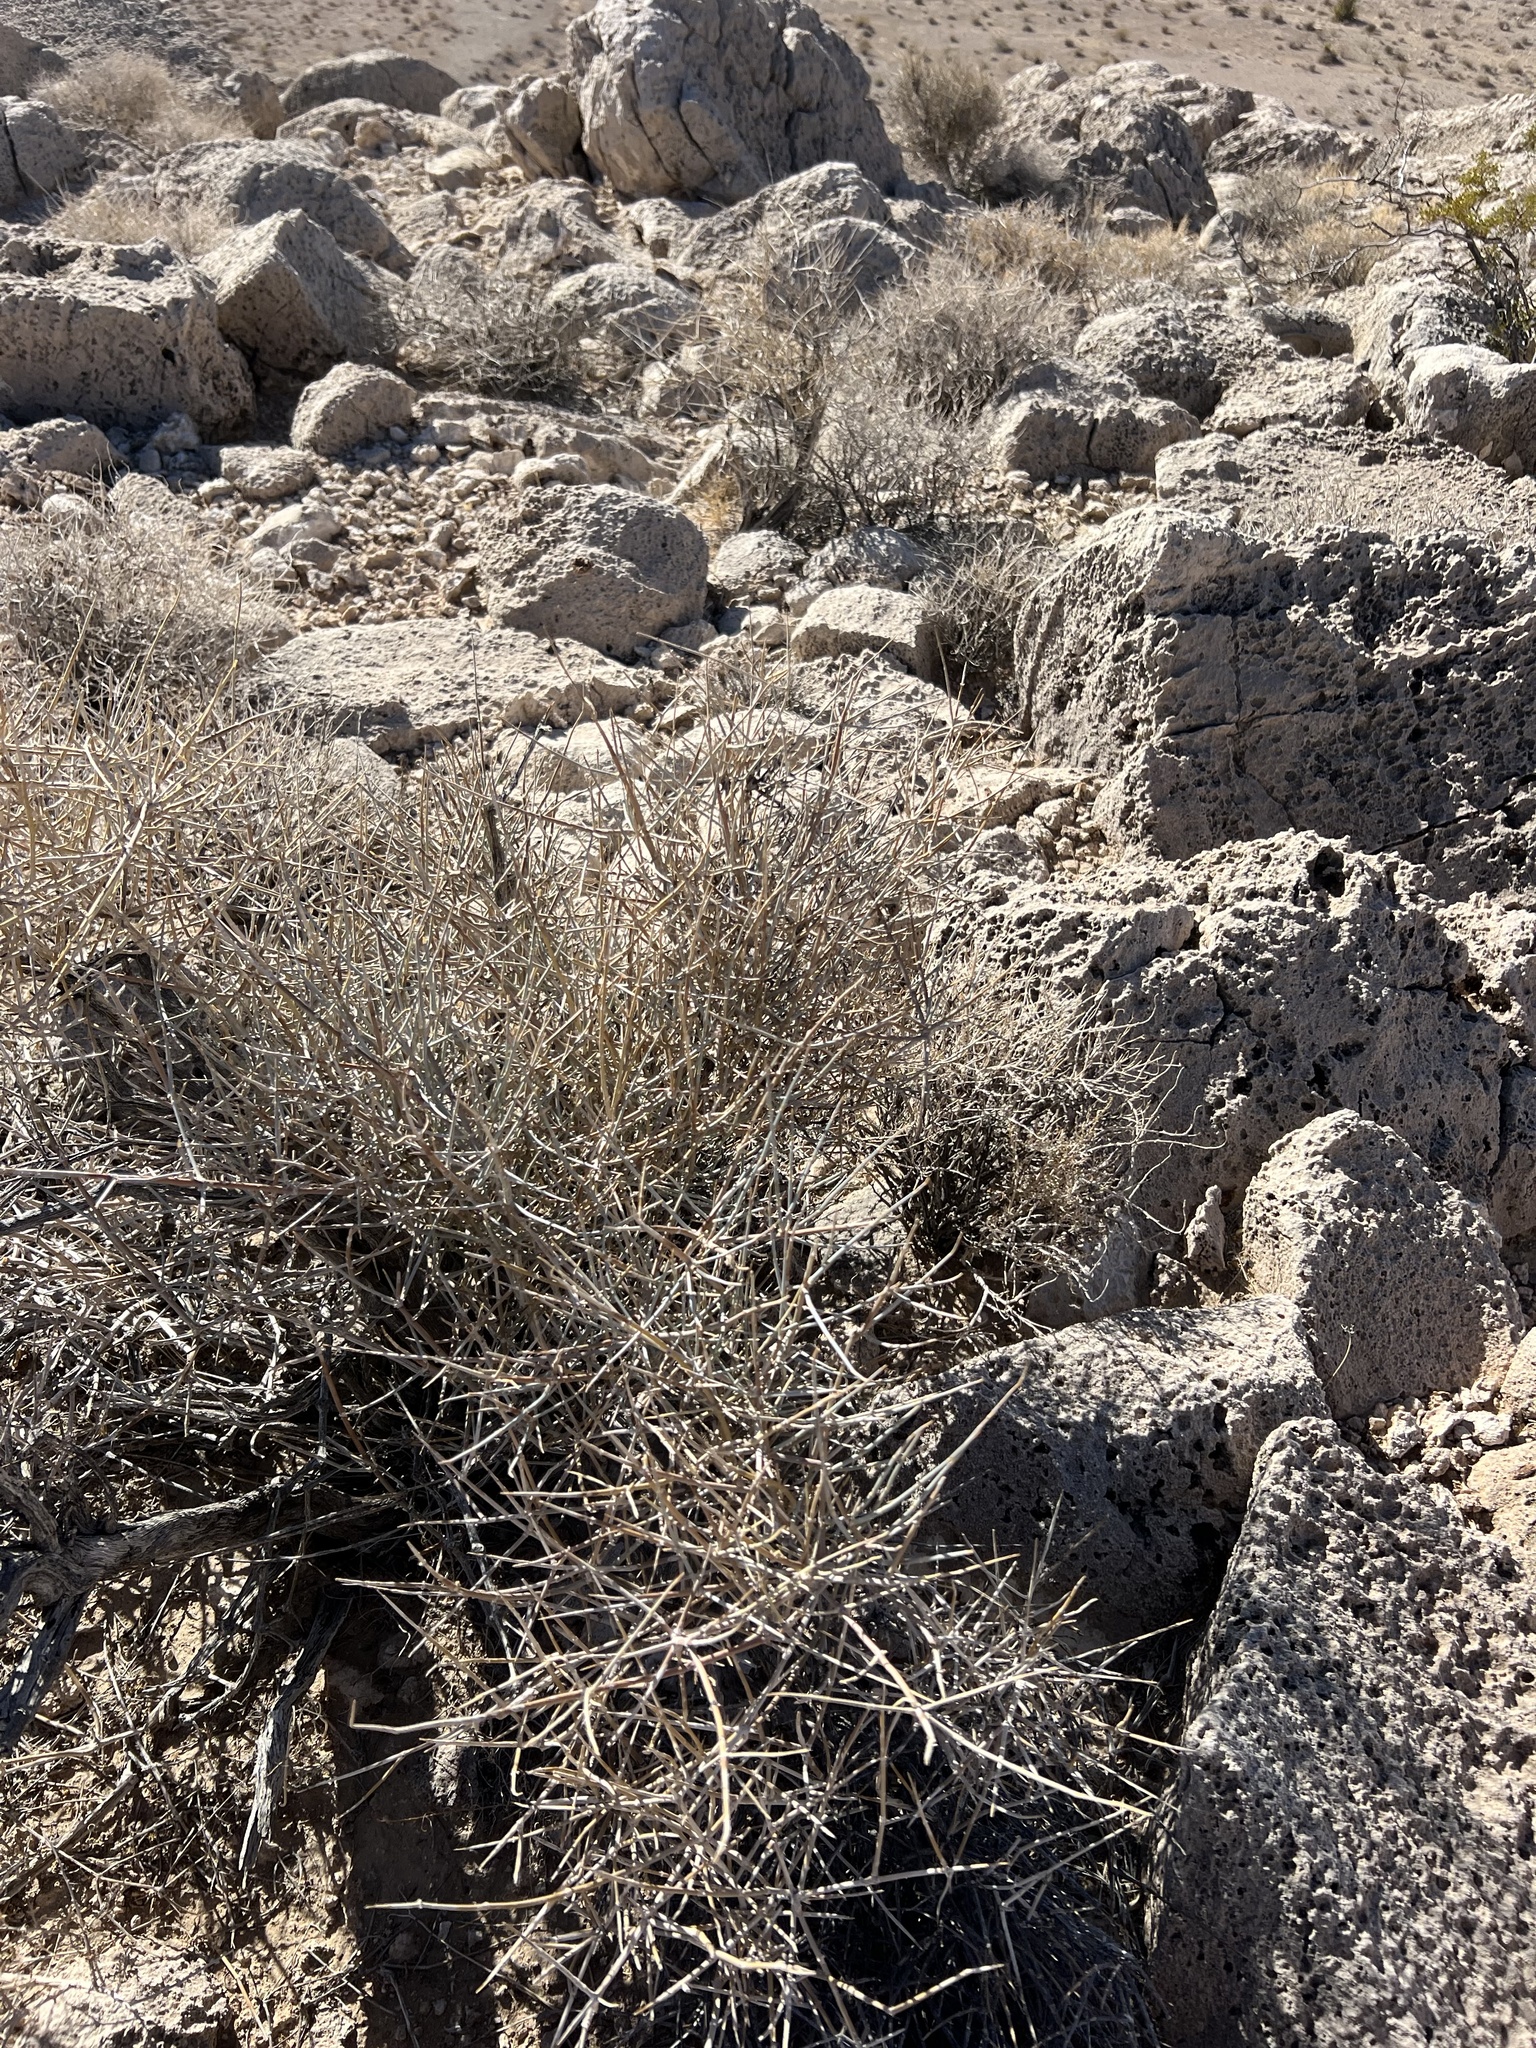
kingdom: Plantae
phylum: Tracheophyta
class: Gnetopsida
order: Ephedrales
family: Ephedraceae
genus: Ephedra
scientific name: Ephedra nevadensis
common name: Gray ephedra
